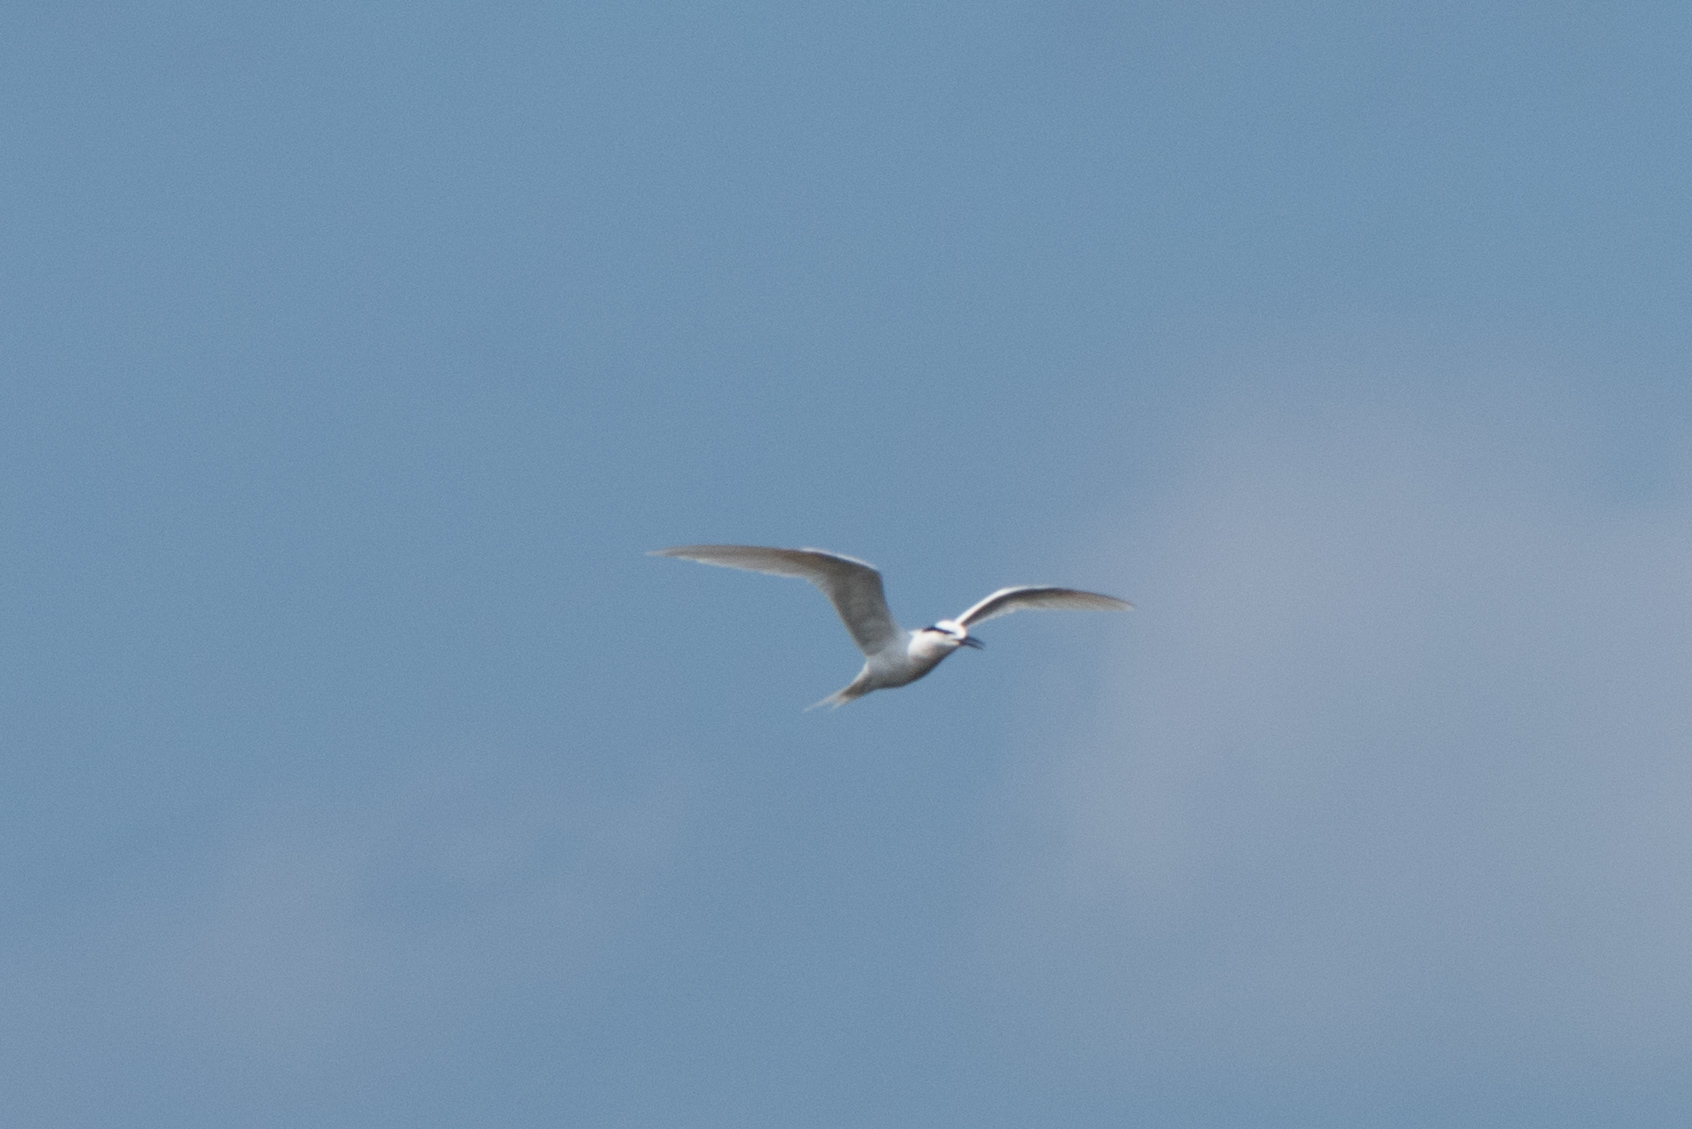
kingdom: Animalia
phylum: Chordata
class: Aves
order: Charadriiformes
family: Laridae
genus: Sterna
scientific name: Sterna sumatrana
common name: Black-naped tern
